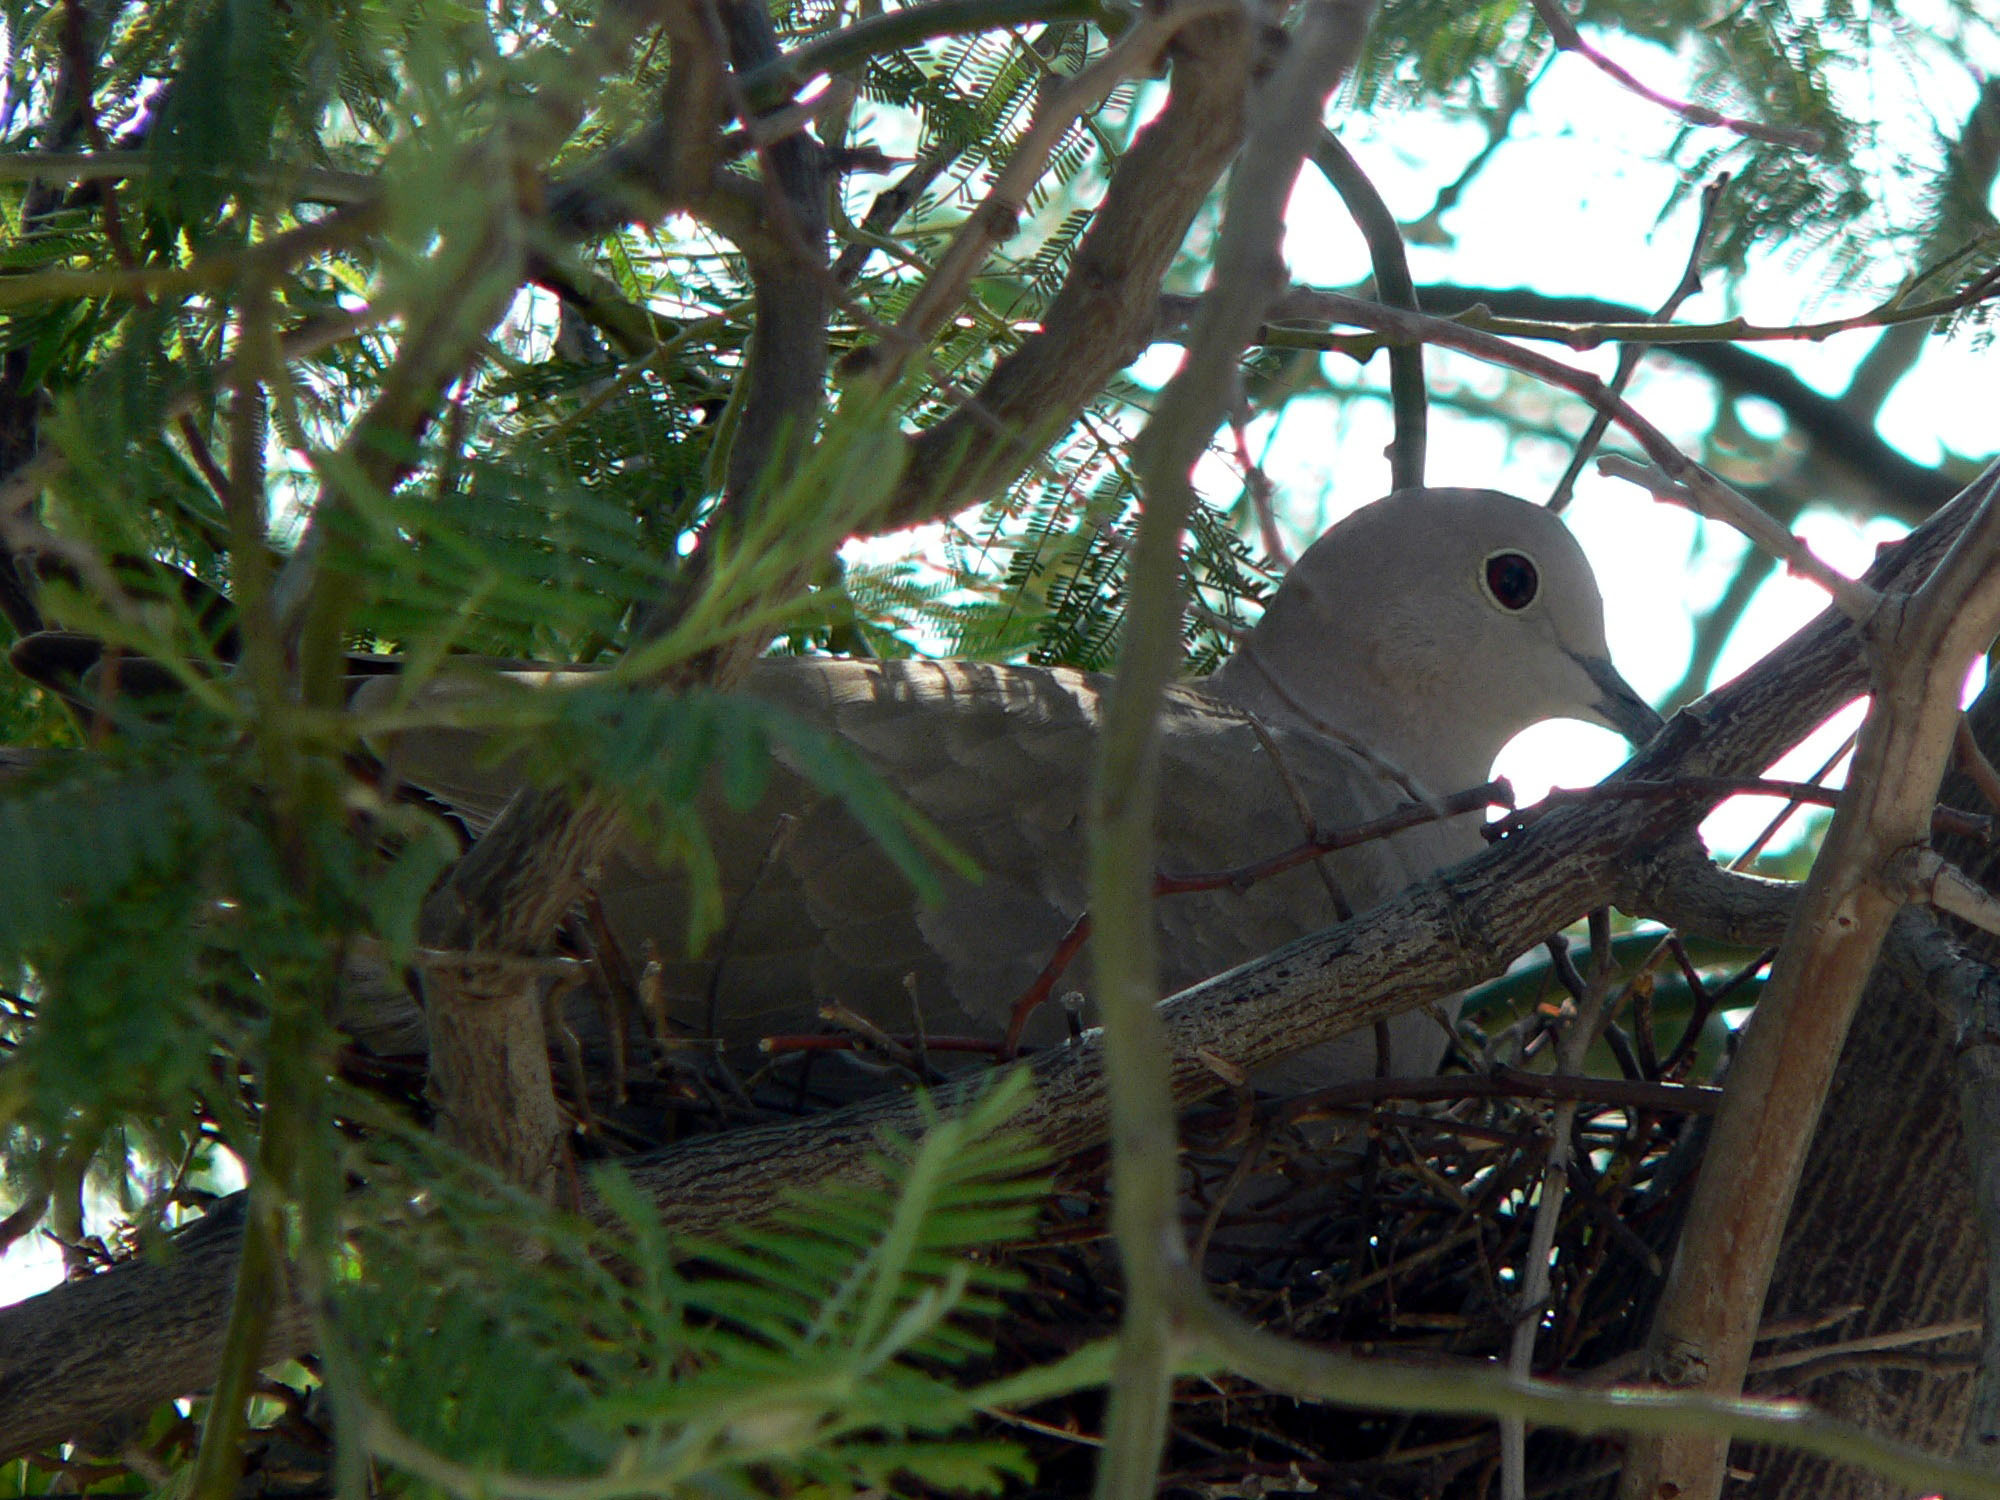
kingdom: Animalia
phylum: Chordata
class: Aves
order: Columbiformes
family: Columbidae
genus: Streptopelia
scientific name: Streptopelia decaocto
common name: Eurasian collared dove
